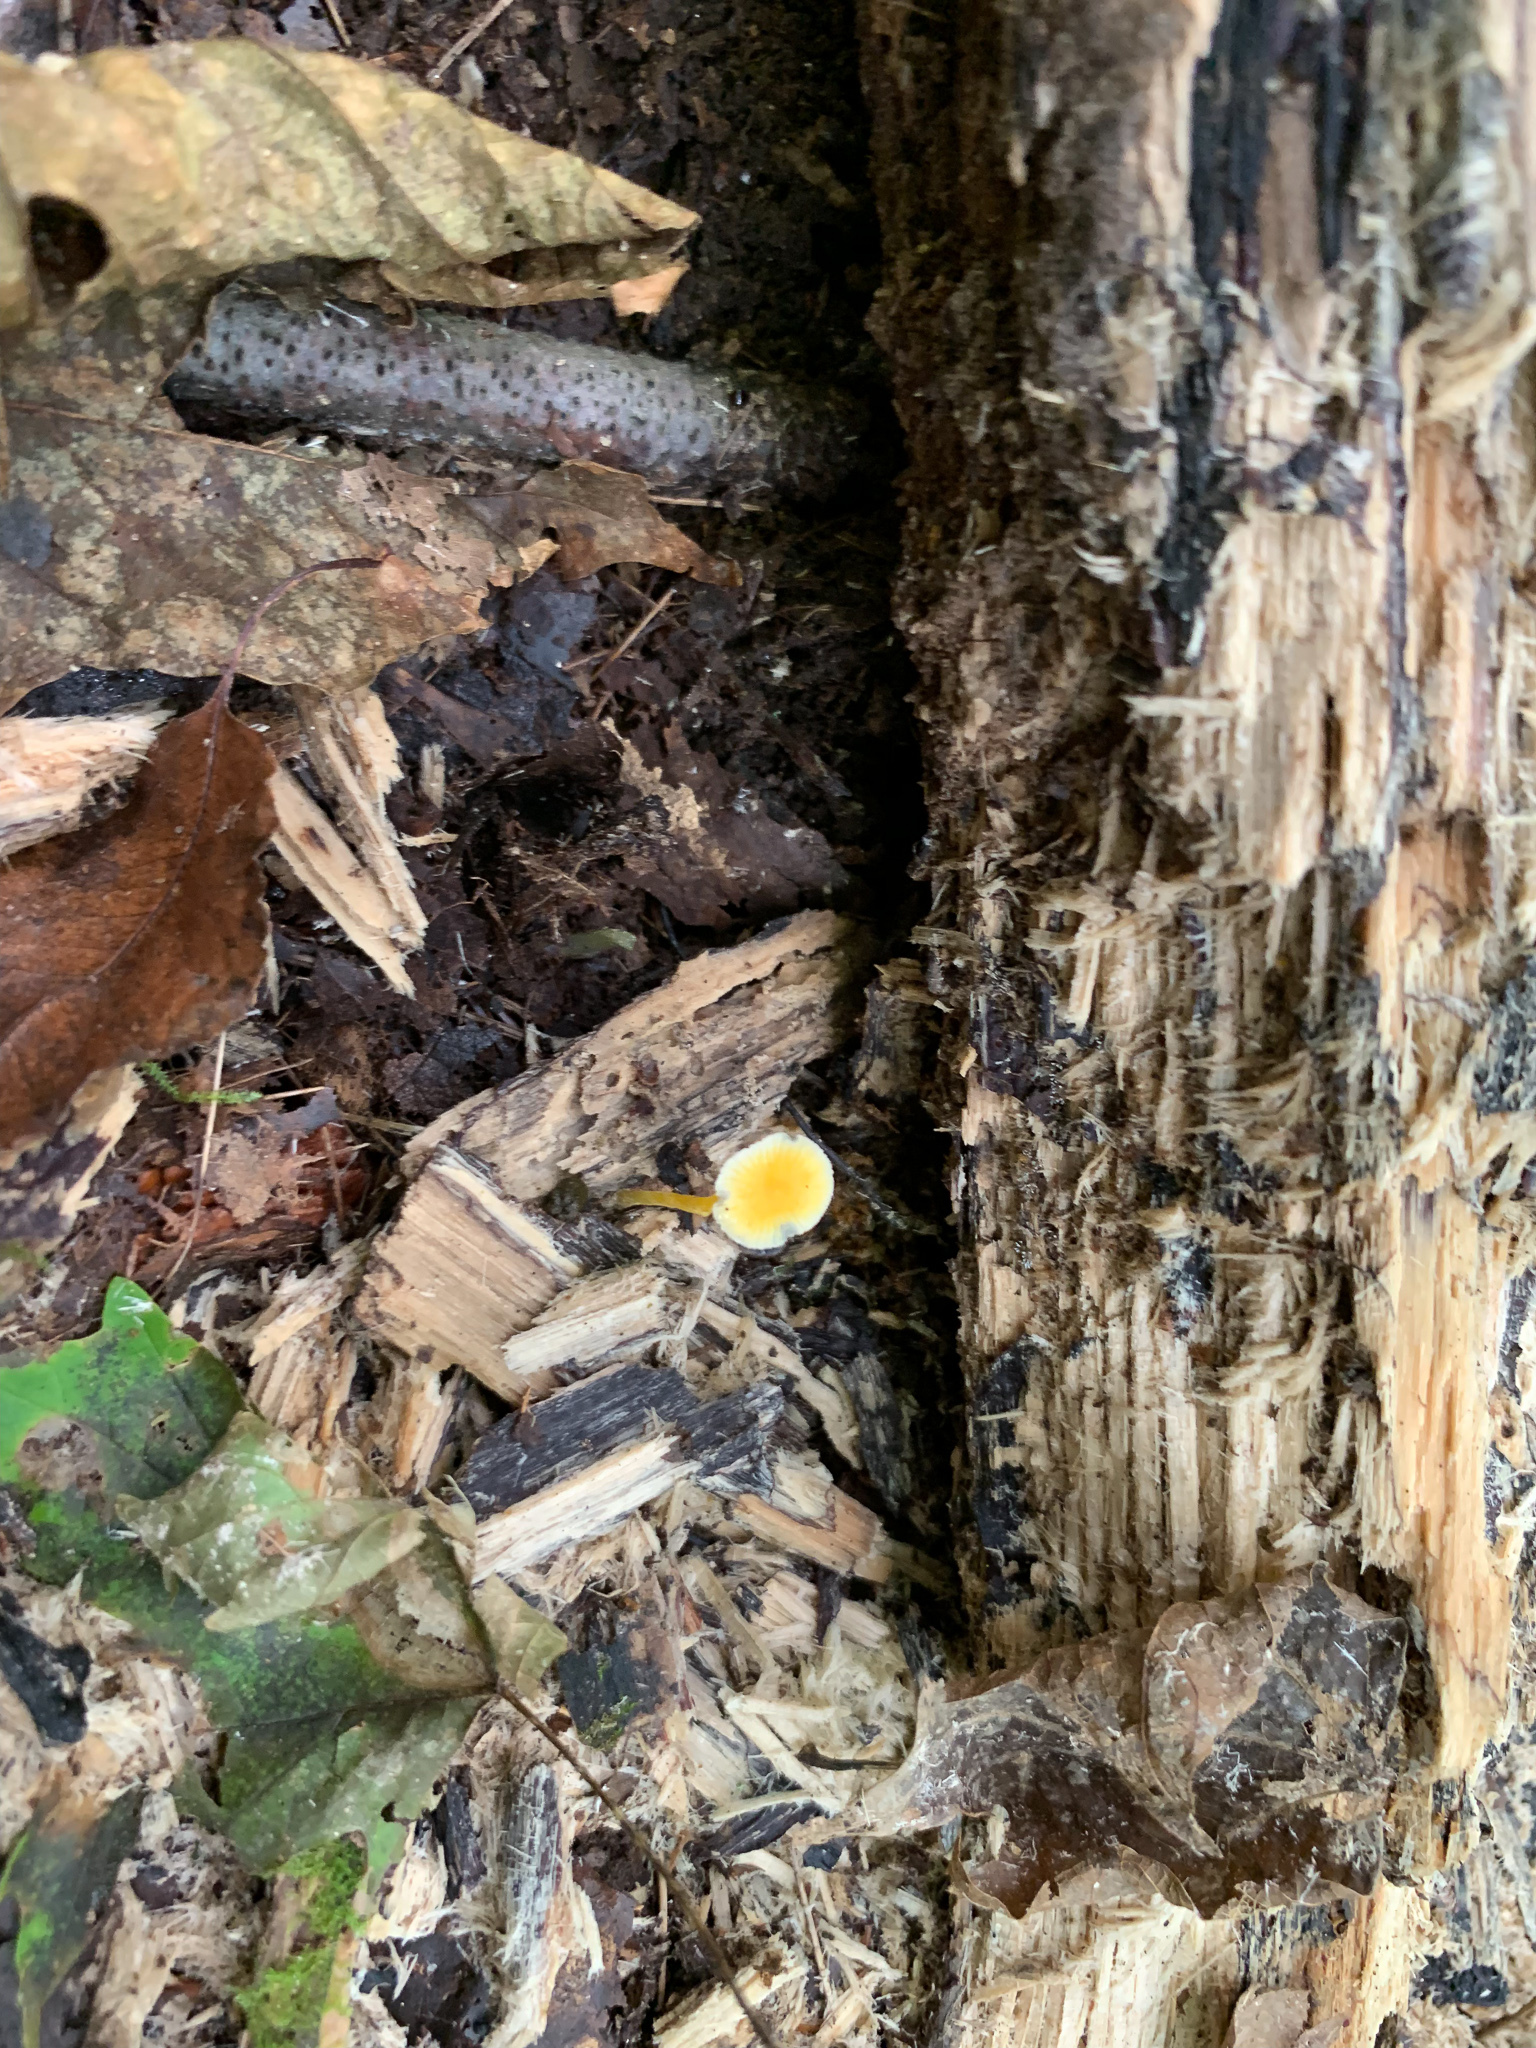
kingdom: Fungi
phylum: Basidiomycota
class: Agaricomycetes
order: Agaricales
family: Mycenaceae
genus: Mycena
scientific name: Mycena crocea
